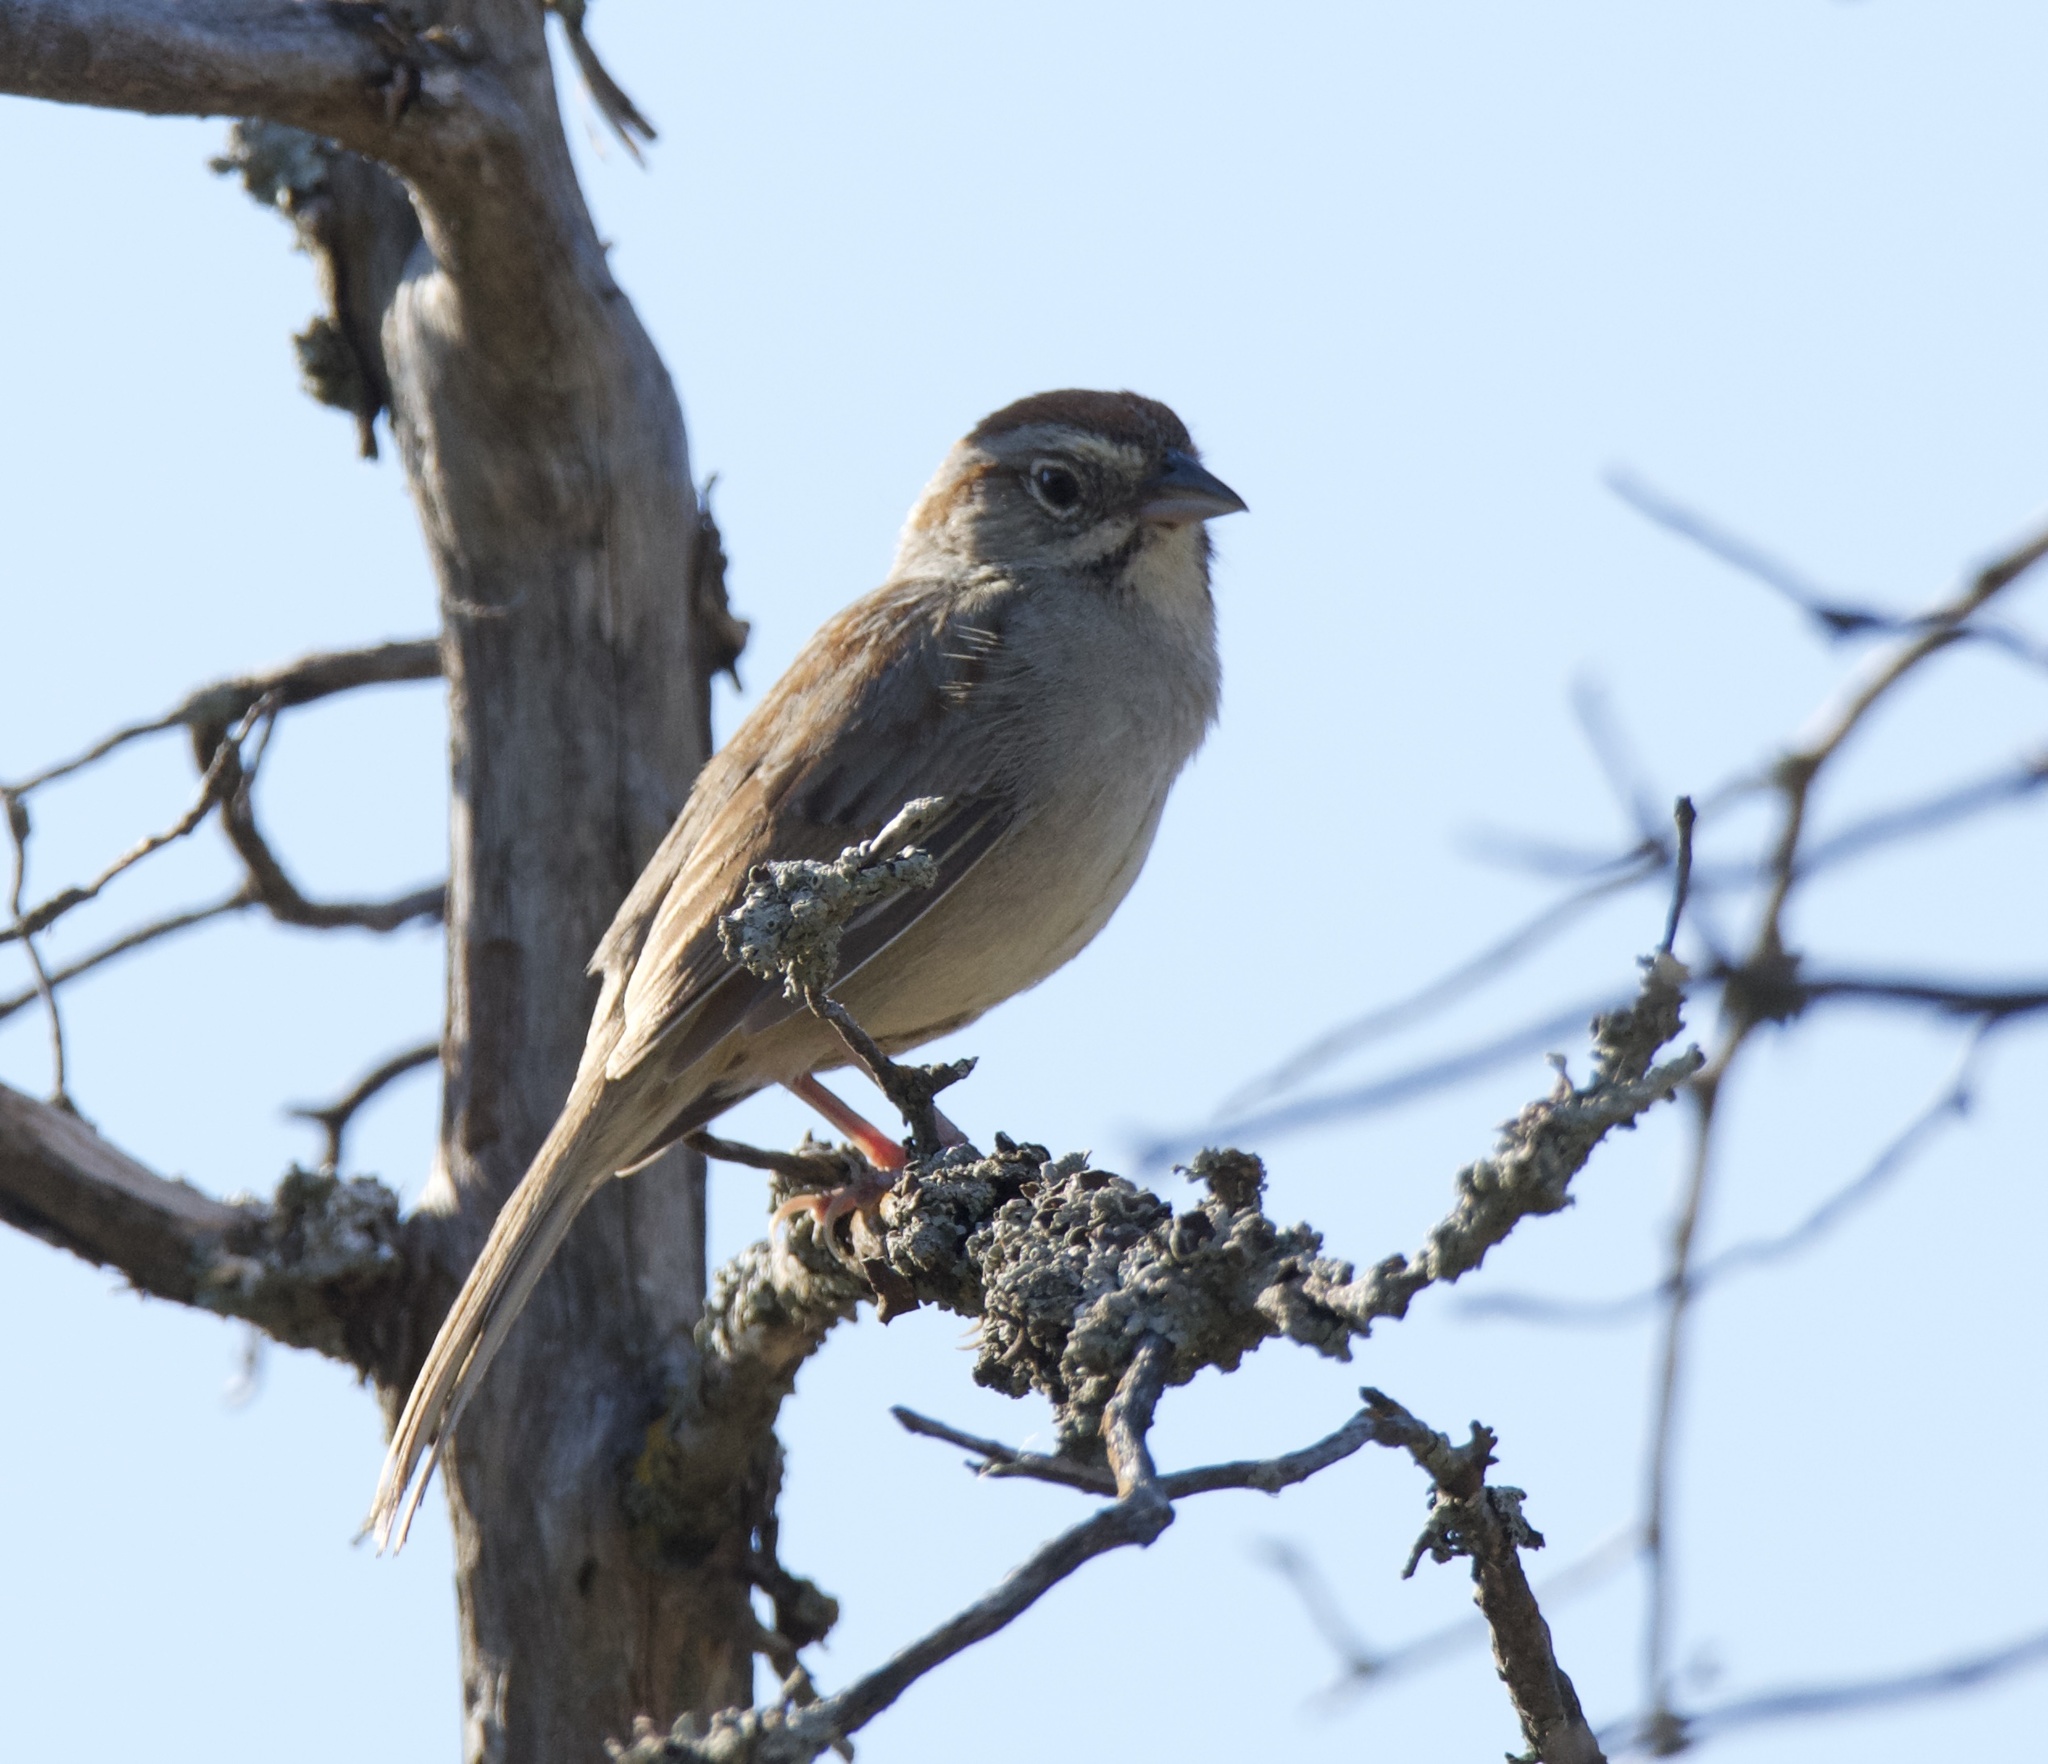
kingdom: Animalia
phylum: Chordata
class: Aves
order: Passeriformes
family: Passerellidae
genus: Aimophila
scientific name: Aimophila ruficeps
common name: Rufous-crowned sparrow
